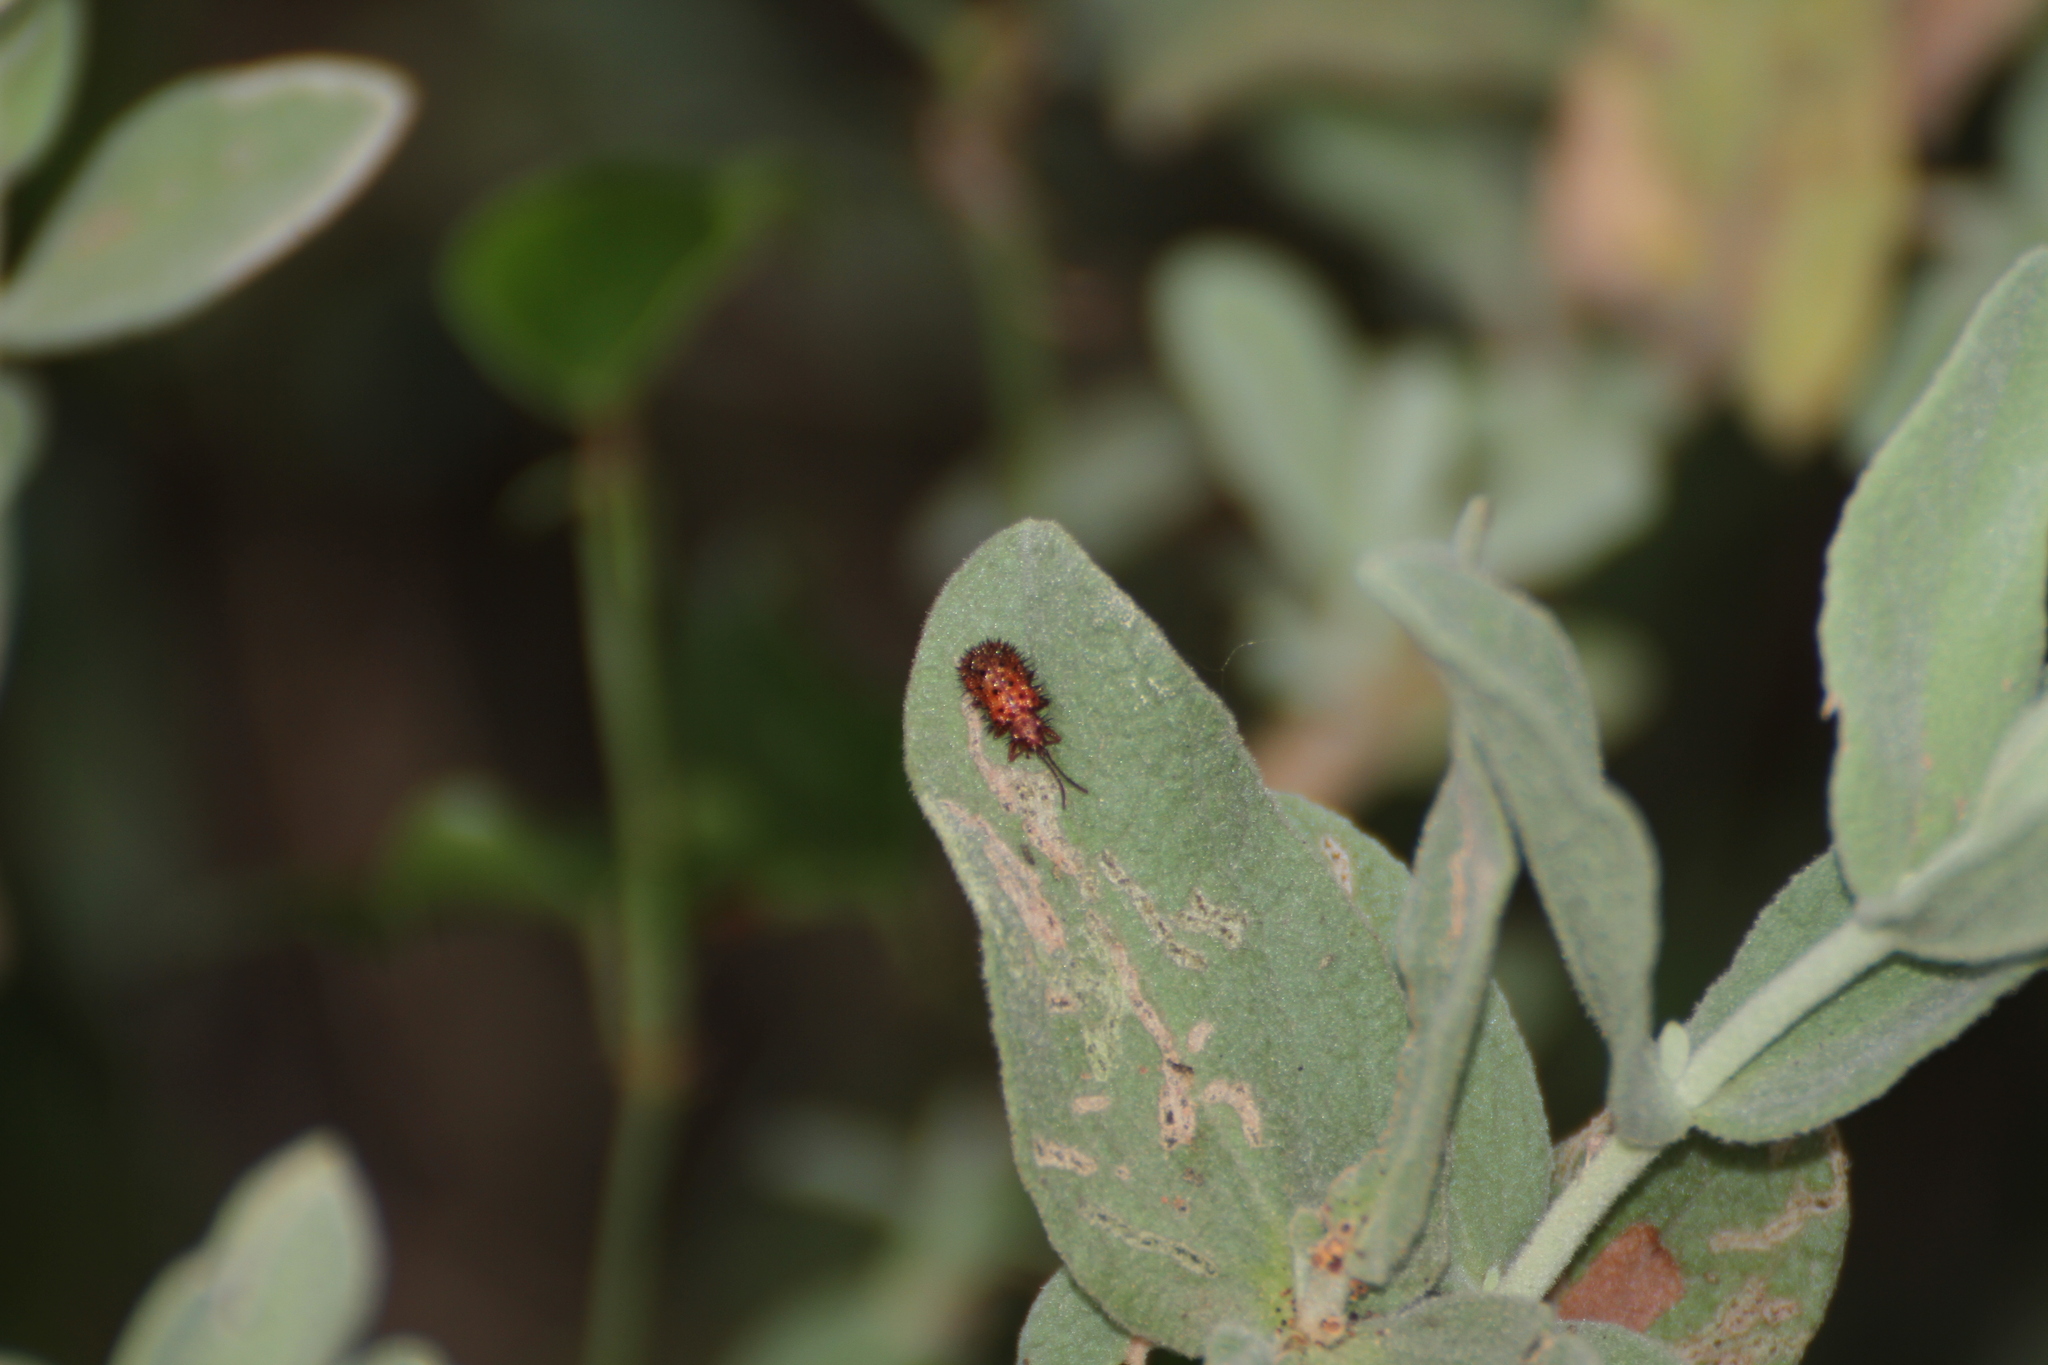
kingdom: Animalia
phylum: Arthropoda
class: Insecta
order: Coleoptera
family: Chrysomelidae
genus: Dicladispa
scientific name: Dicladispa testacea
